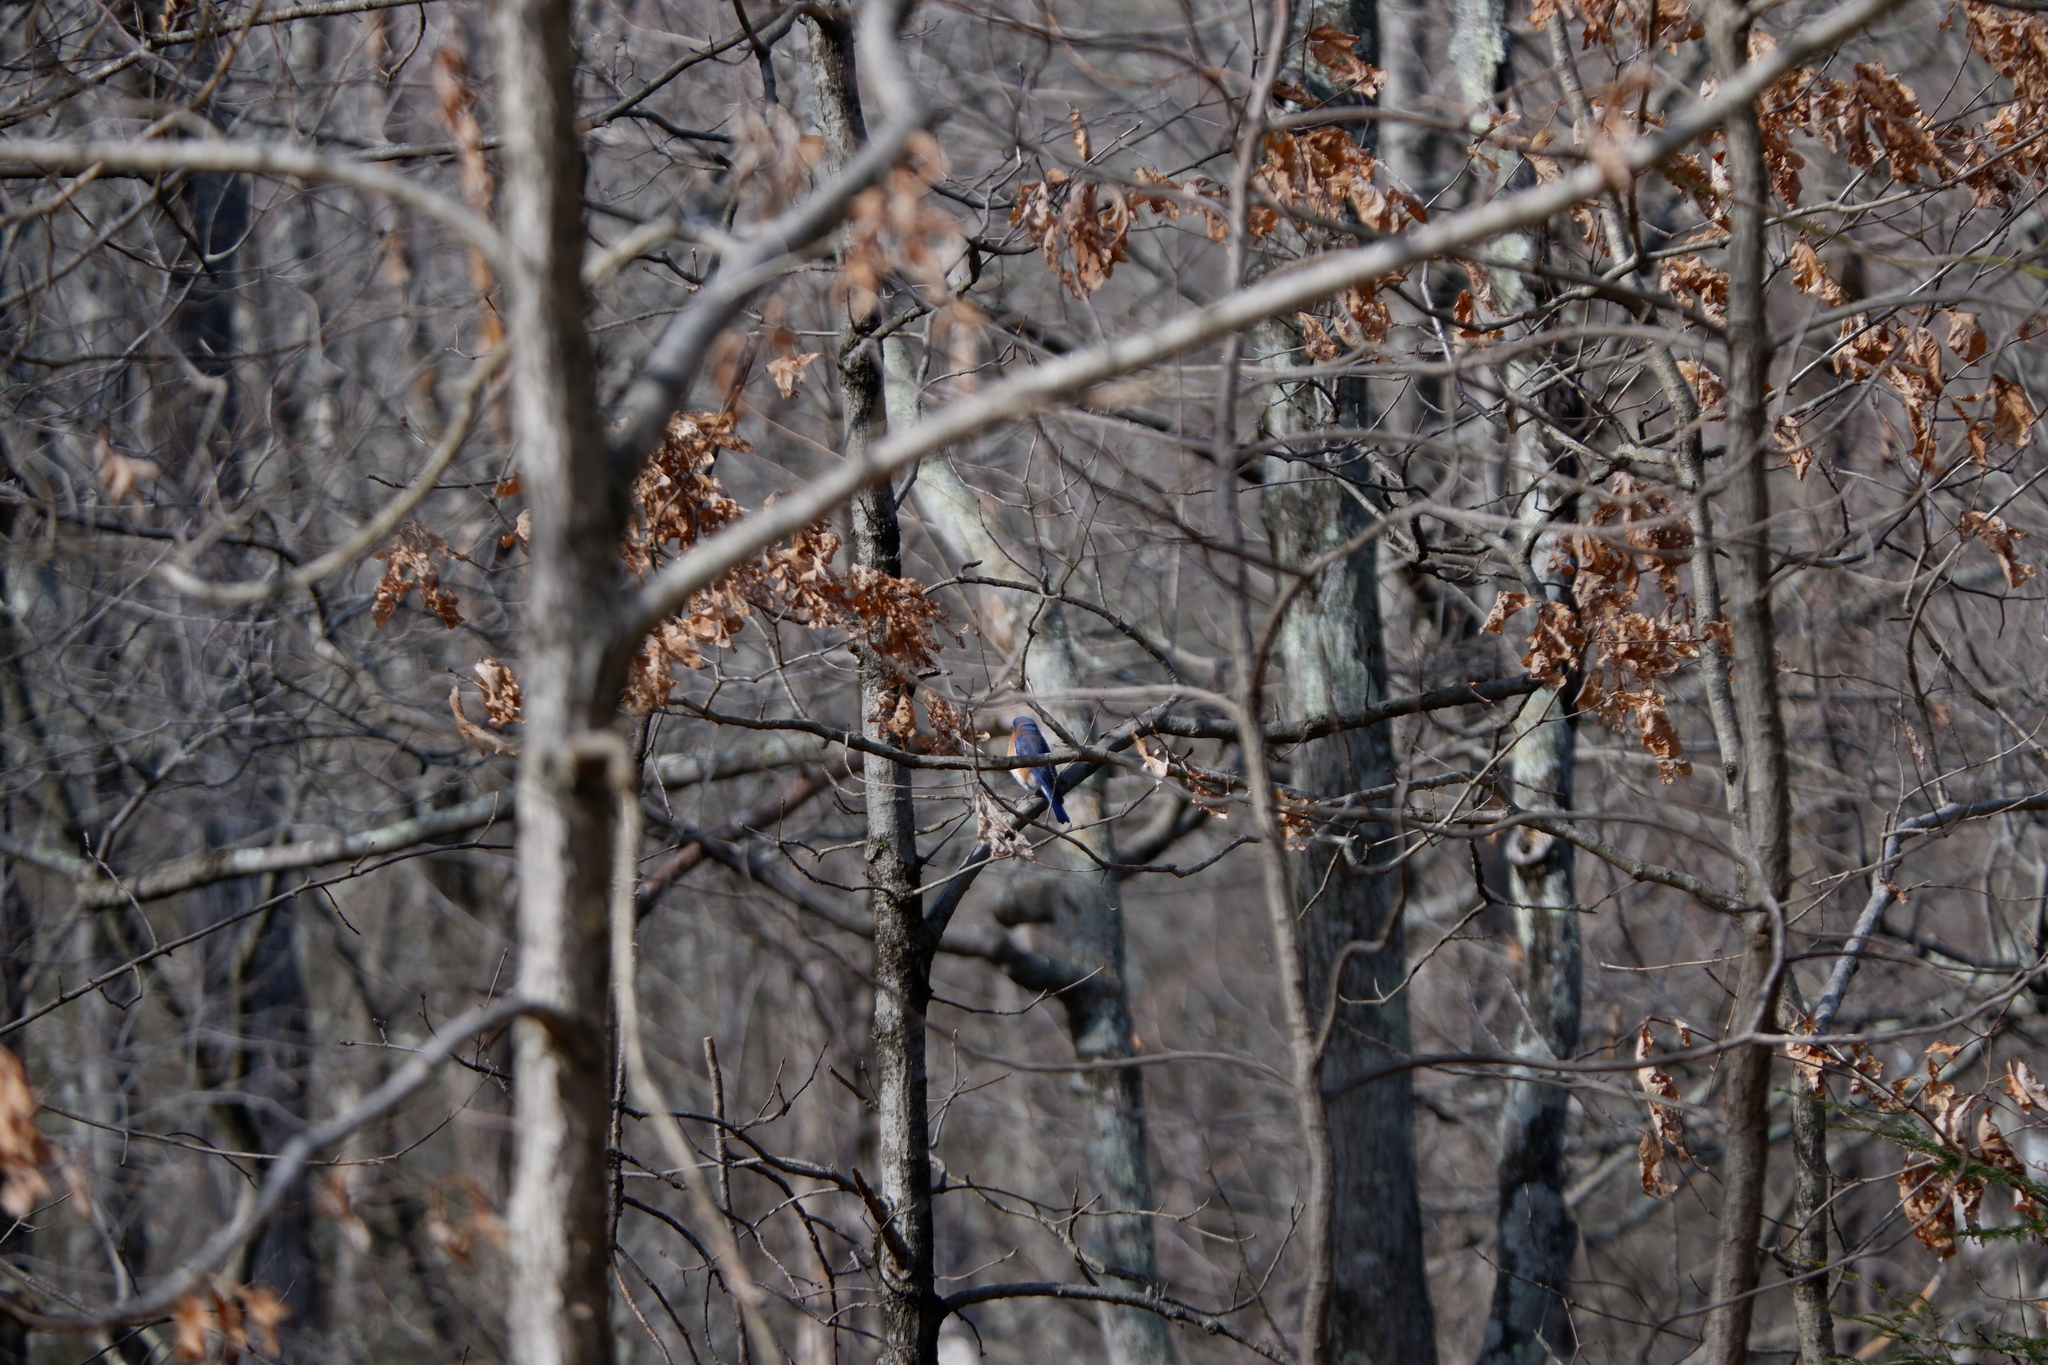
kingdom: Animalia
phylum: Chordata
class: Aves
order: Passeriformes
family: Turdidae
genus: Sialia
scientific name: Sialia sialis
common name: Eastern bluebird
